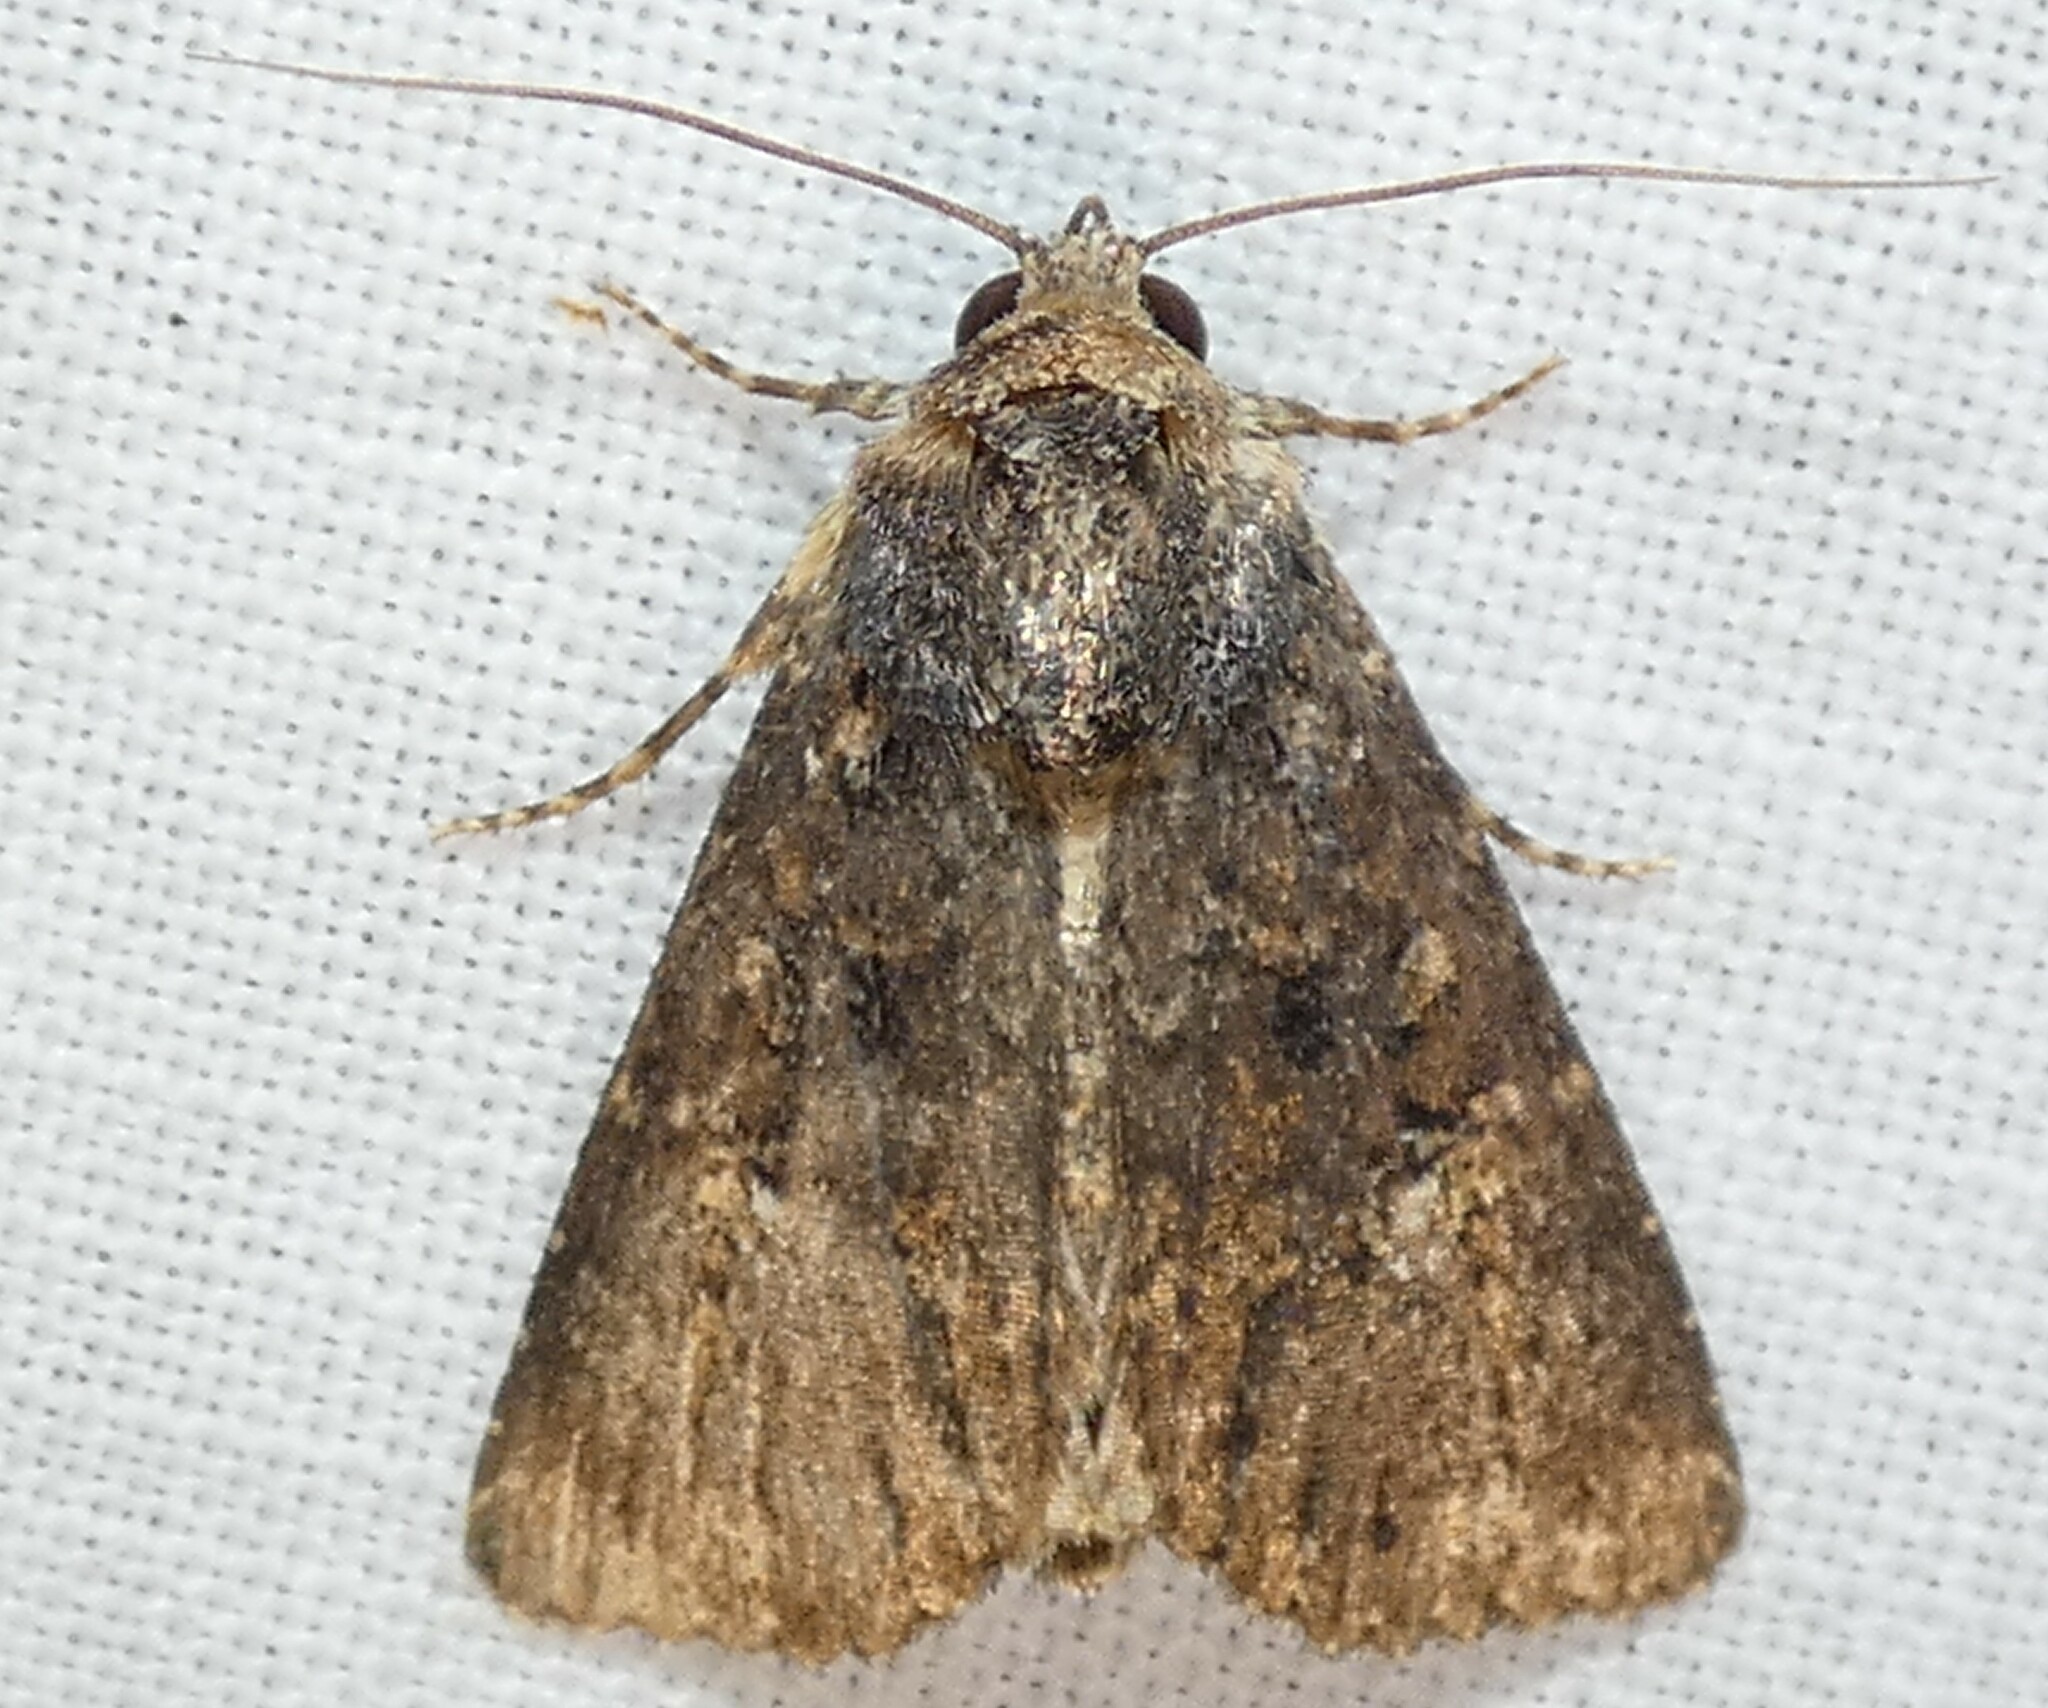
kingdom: Animalia
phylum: Arthropoda
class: Insecta
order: Lepidoptera
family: Noctuidae
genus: Condica
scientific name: Condica vecors
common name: Dusky groundling
